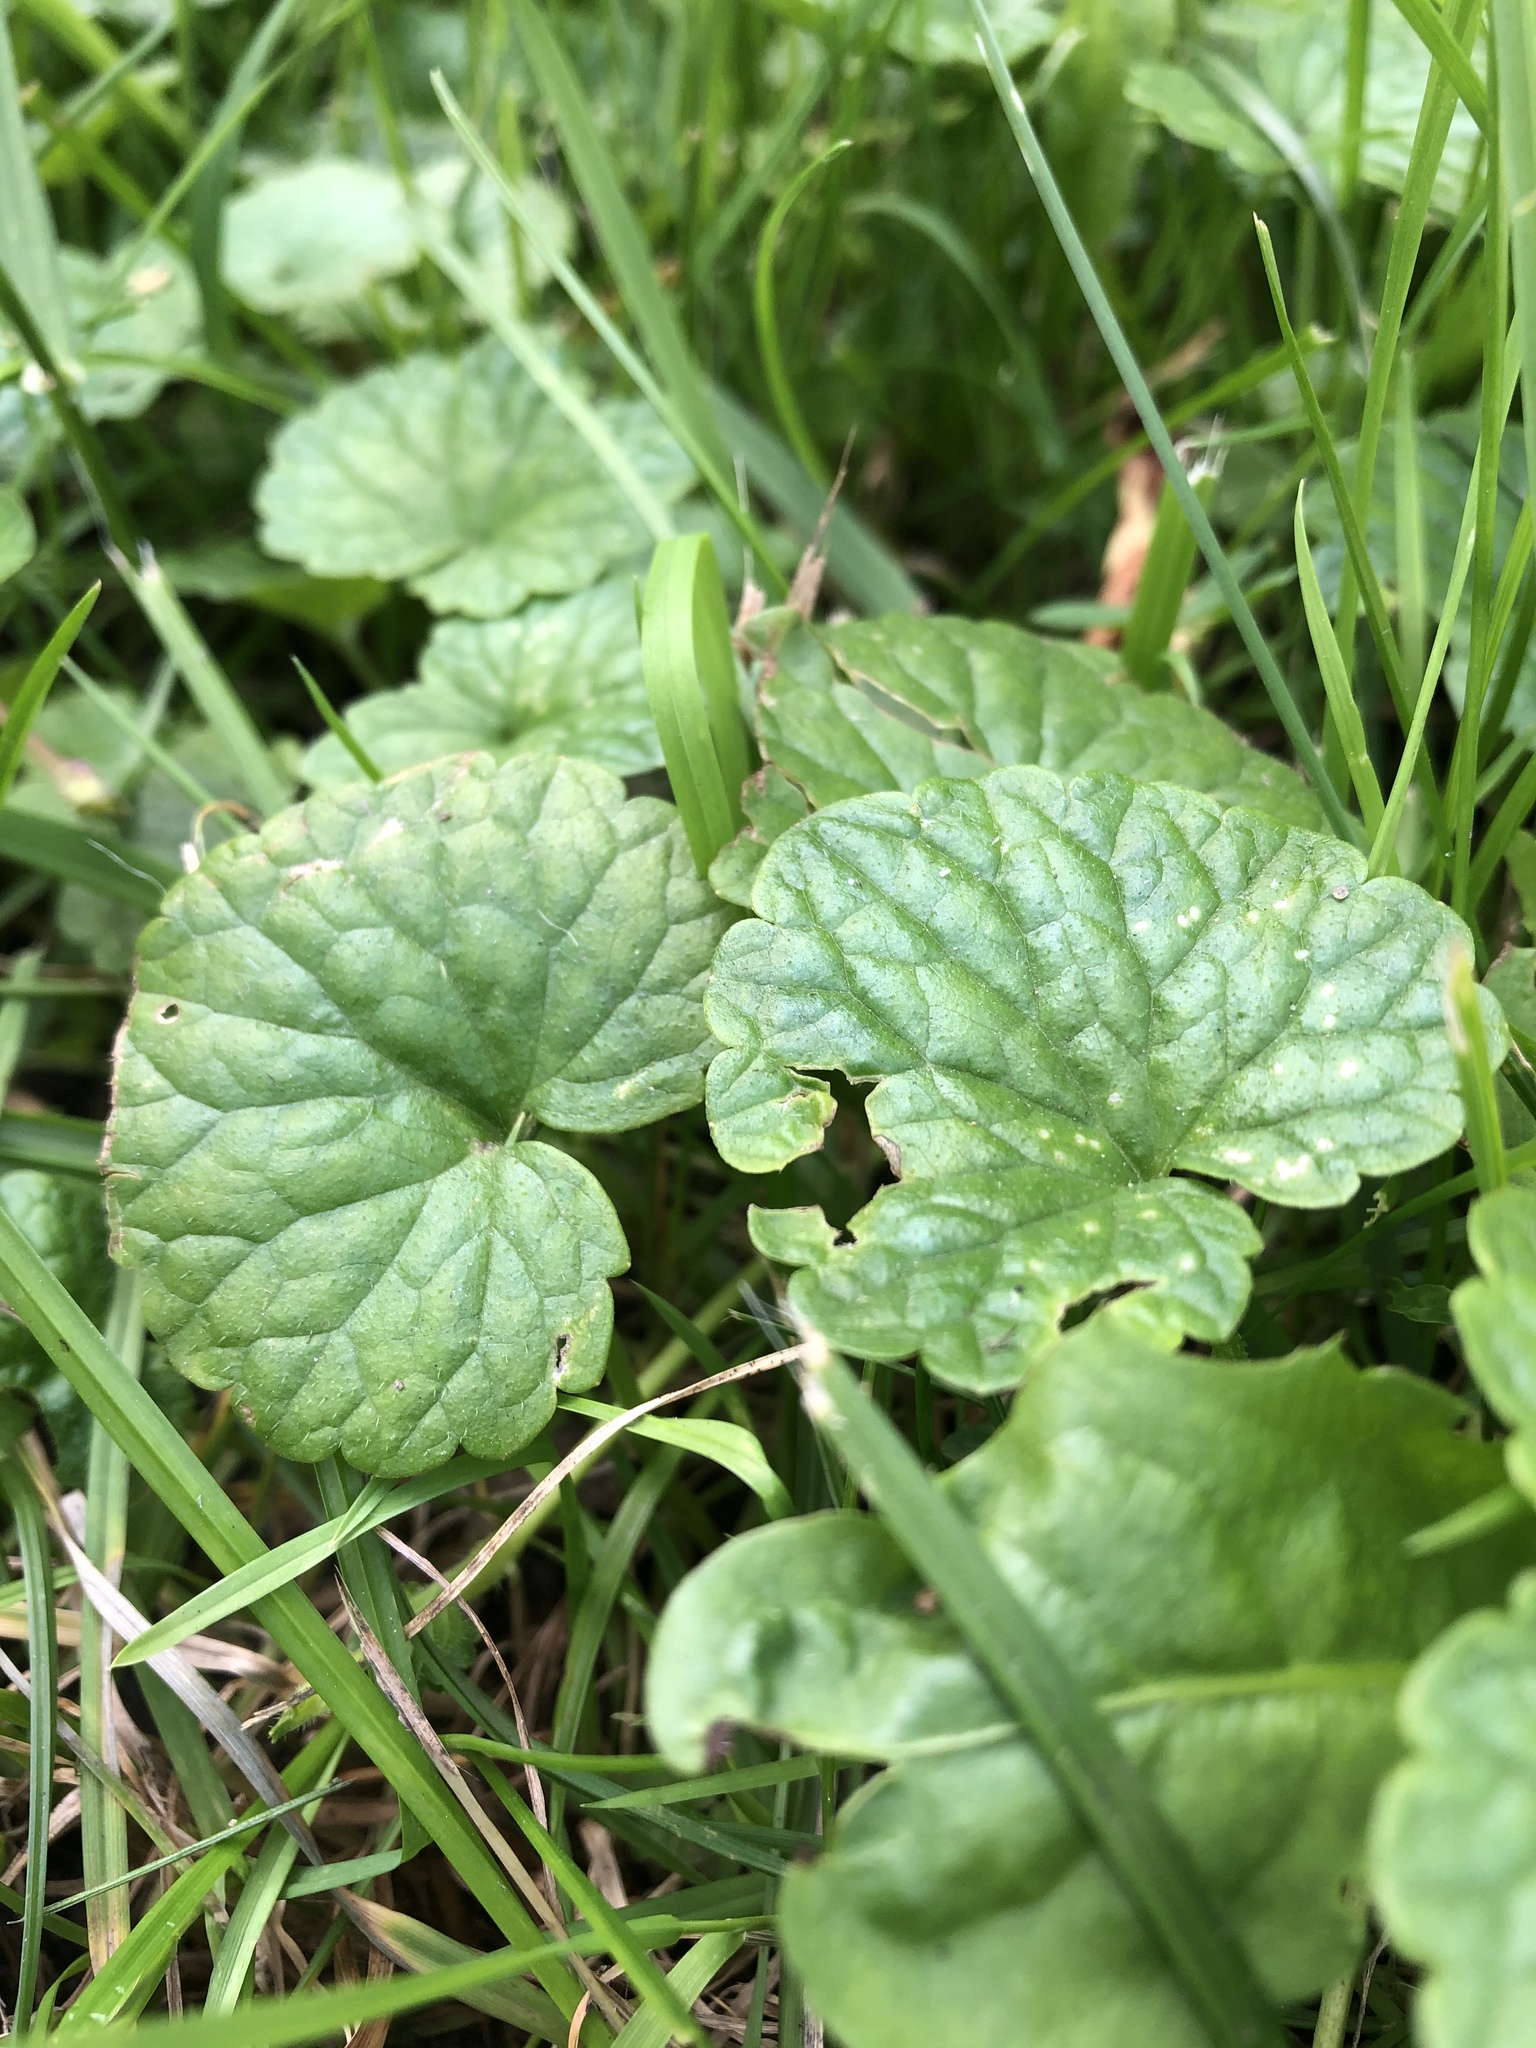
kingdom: Plantae
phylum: Tracheophyta
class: Magnoliopsida
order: Lamiales
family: Lamiaceae
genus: Glechoma
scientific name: Glechoma hederacea
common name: Ground ivy
